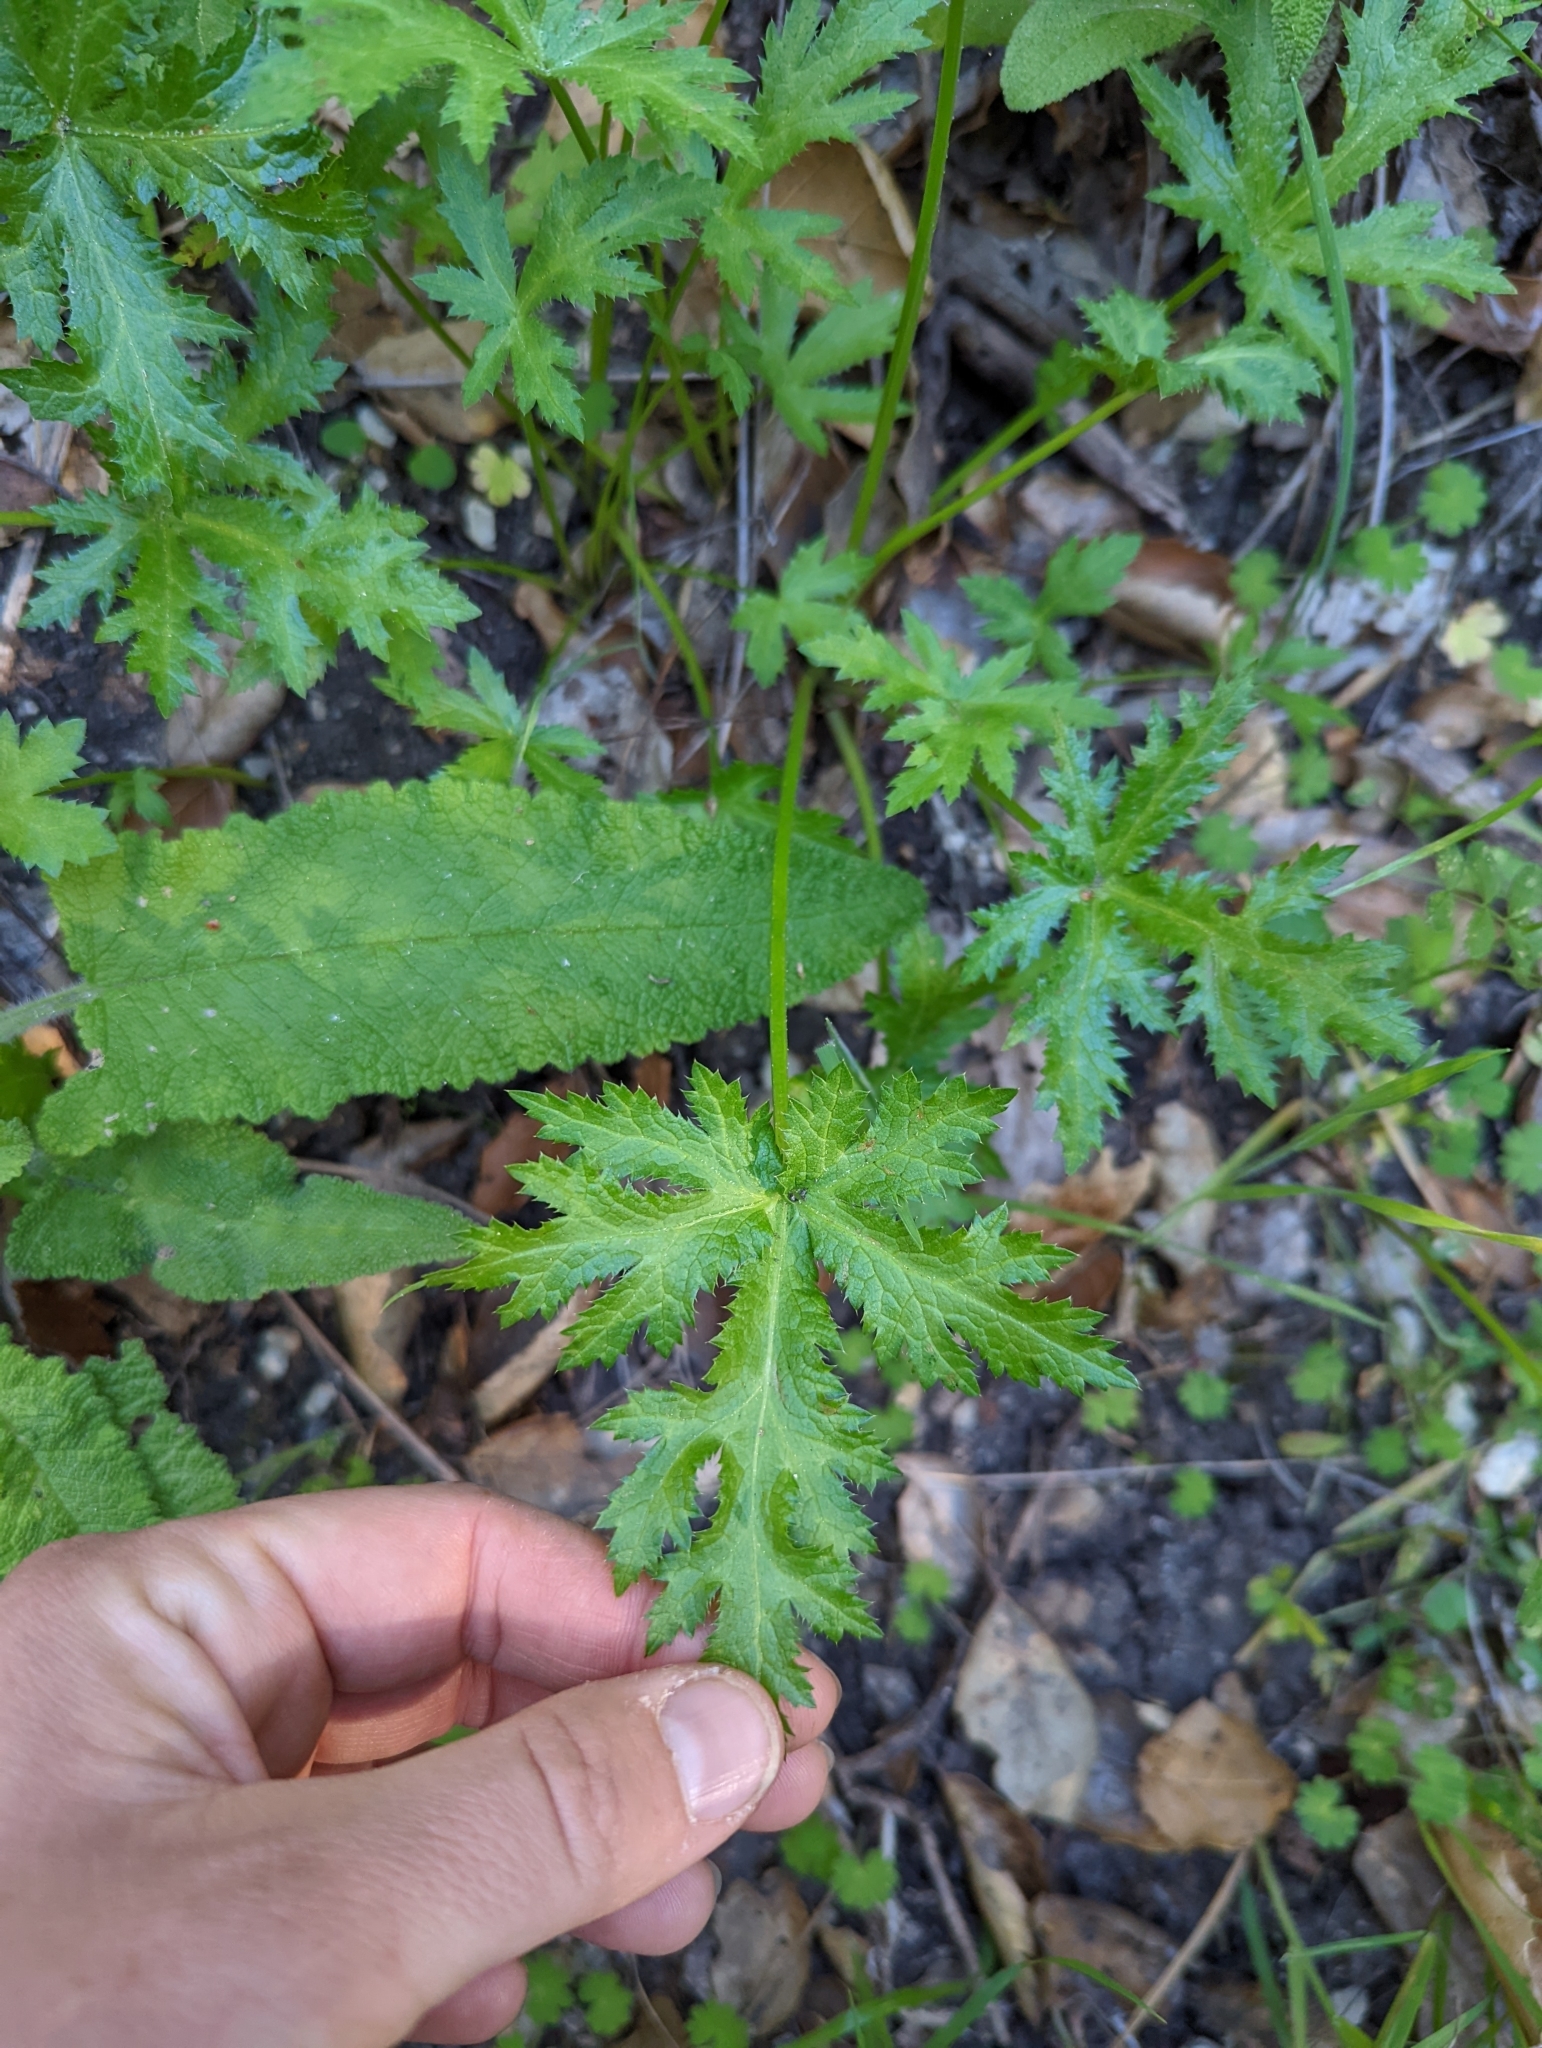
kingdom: Plantae
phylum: Tracheophyta
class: Magnoliopsida
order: Apiales
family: Apiaceae
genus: Sanicula
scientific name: Sanicula arguta
